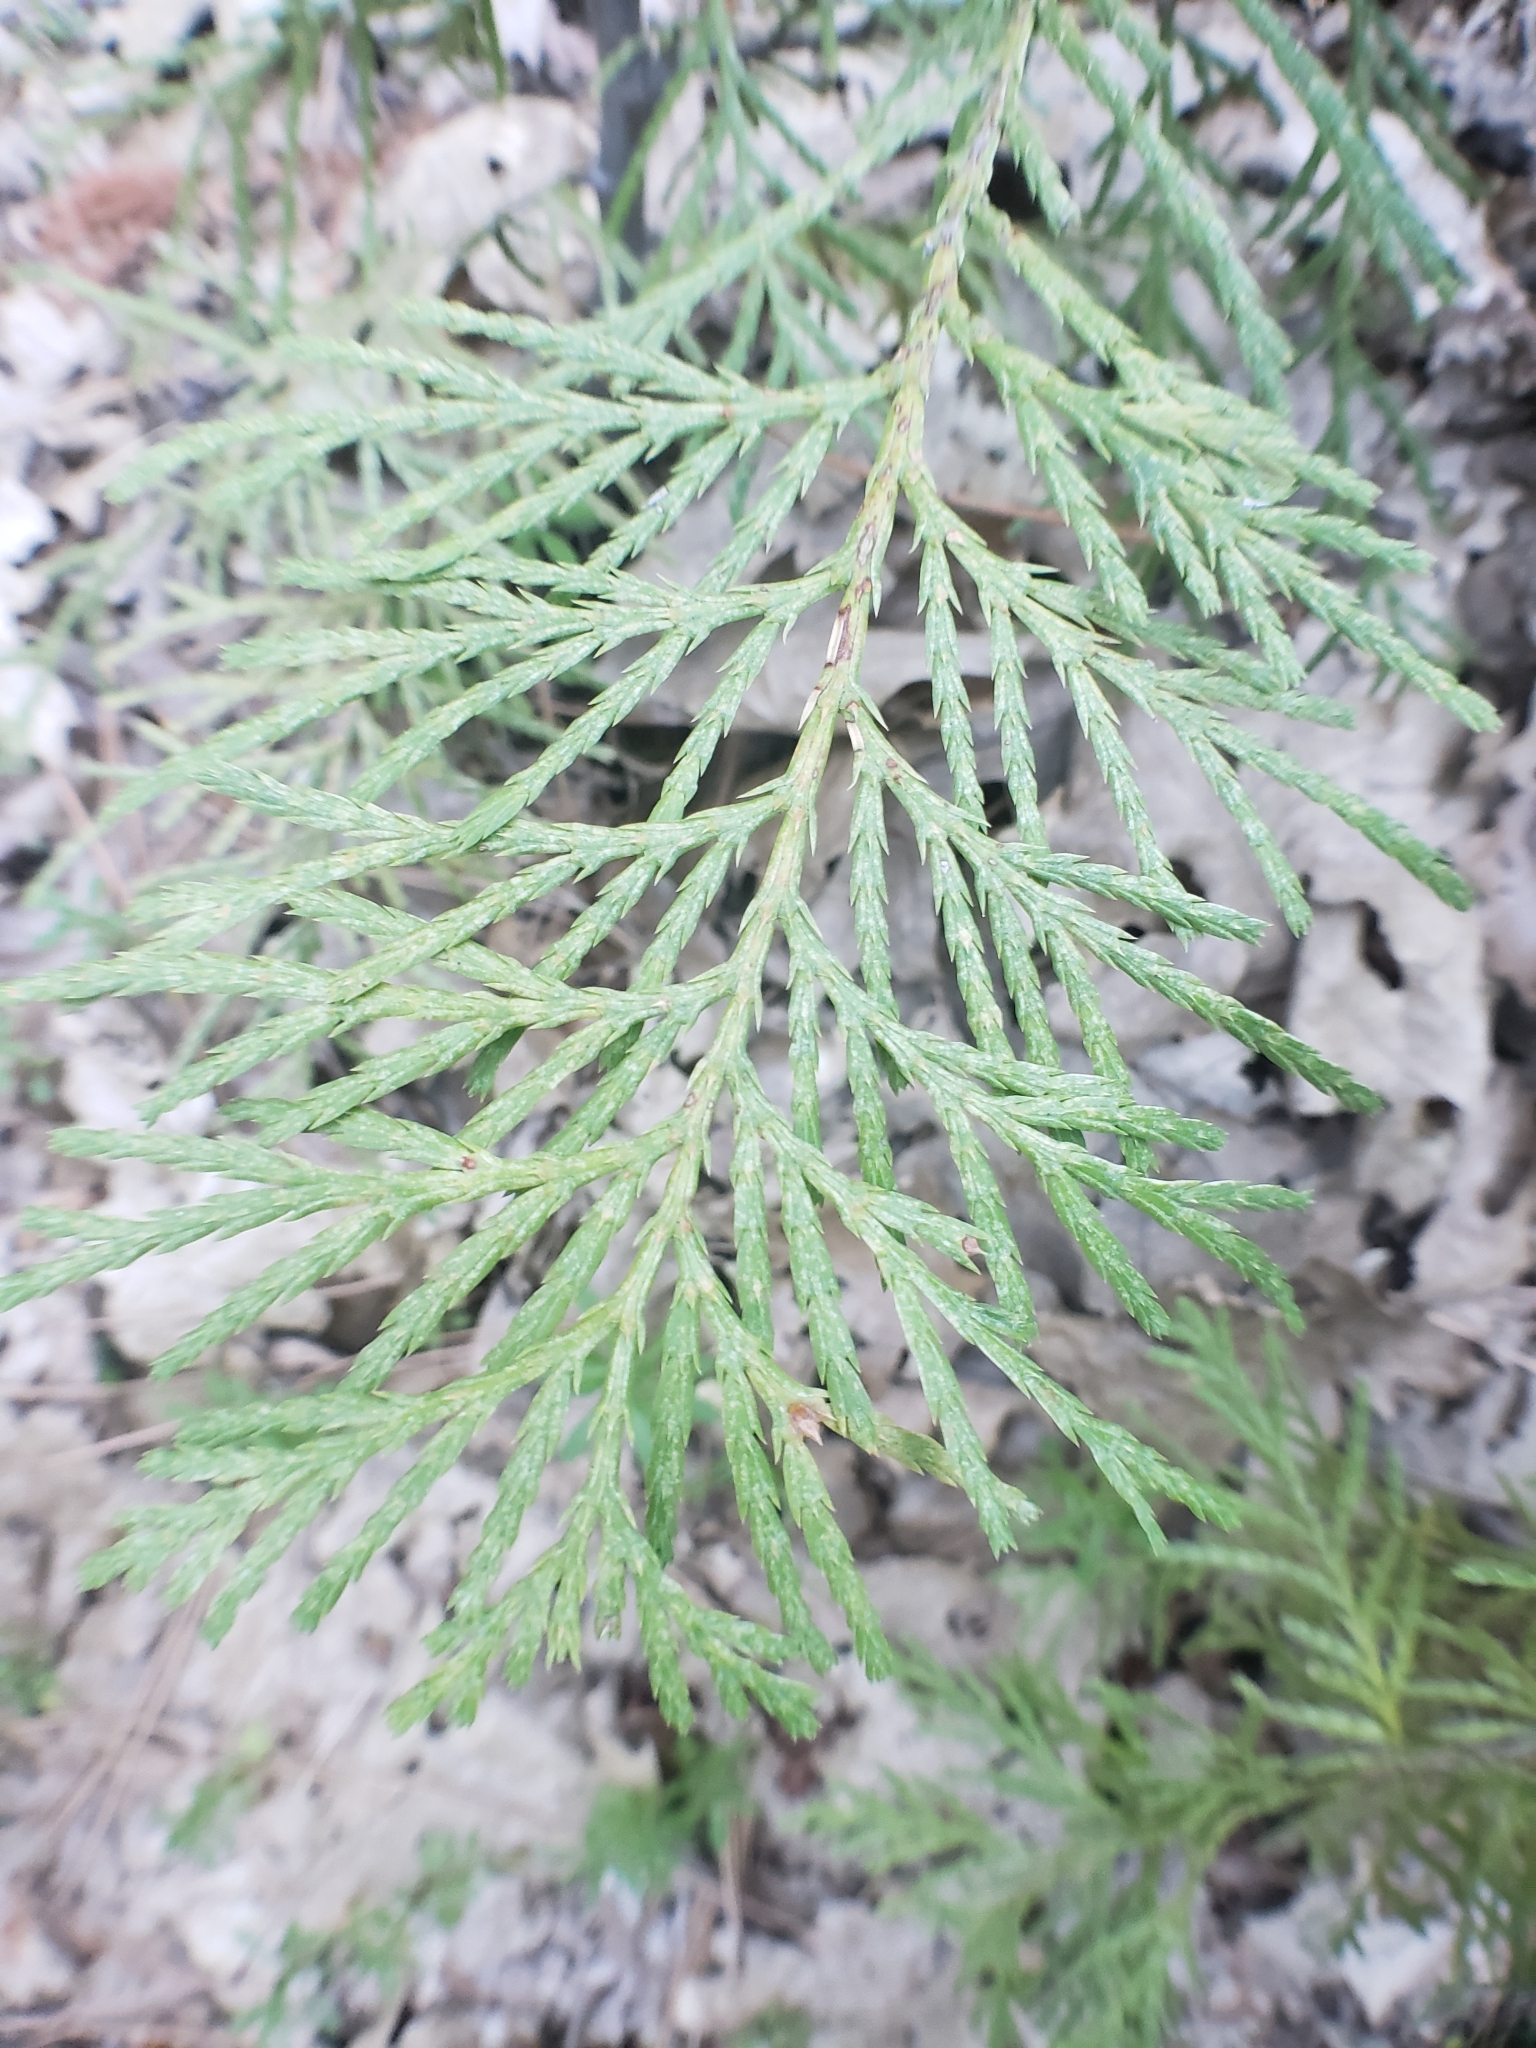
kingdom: Plantae
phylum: Tracheophyta
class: Pinopsida
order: Pinales
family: Cupressaceae
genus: Calocedrus
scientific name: Calocedrus decurrens
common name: Californian incense-cedar
